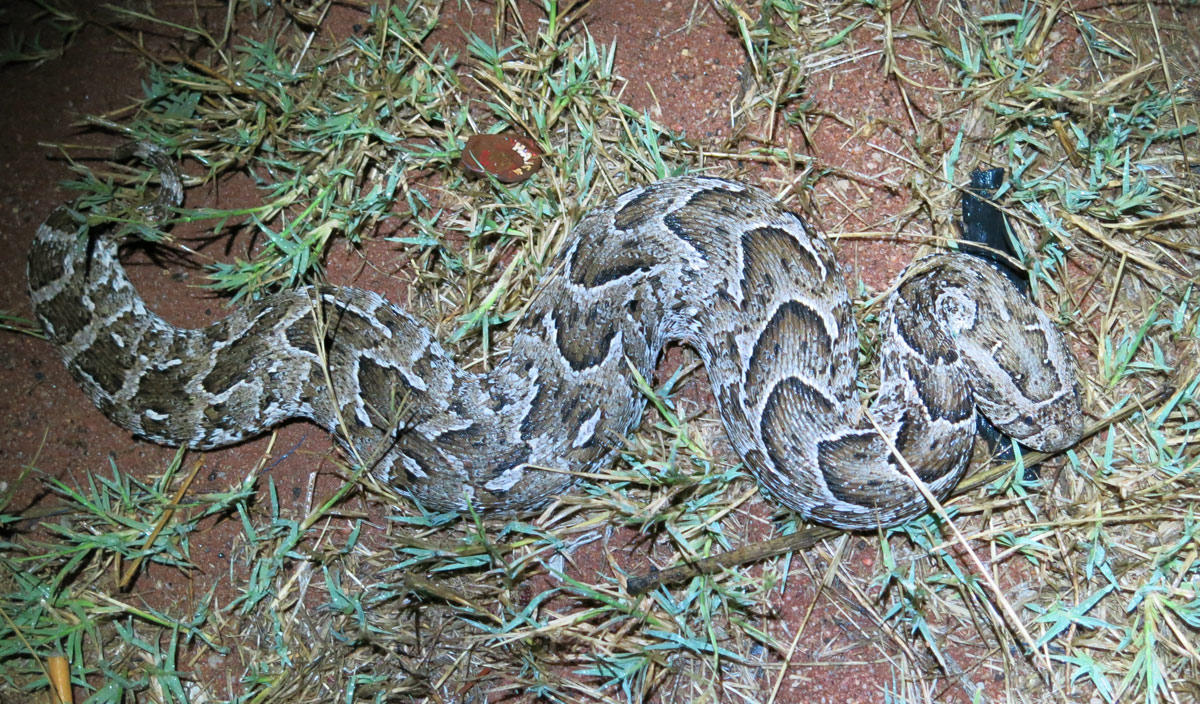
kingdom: Animalia
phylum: Chordata
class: Squamata
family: Viperidae
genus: Bitis
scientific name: Bitis arietans
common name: Puff adder
